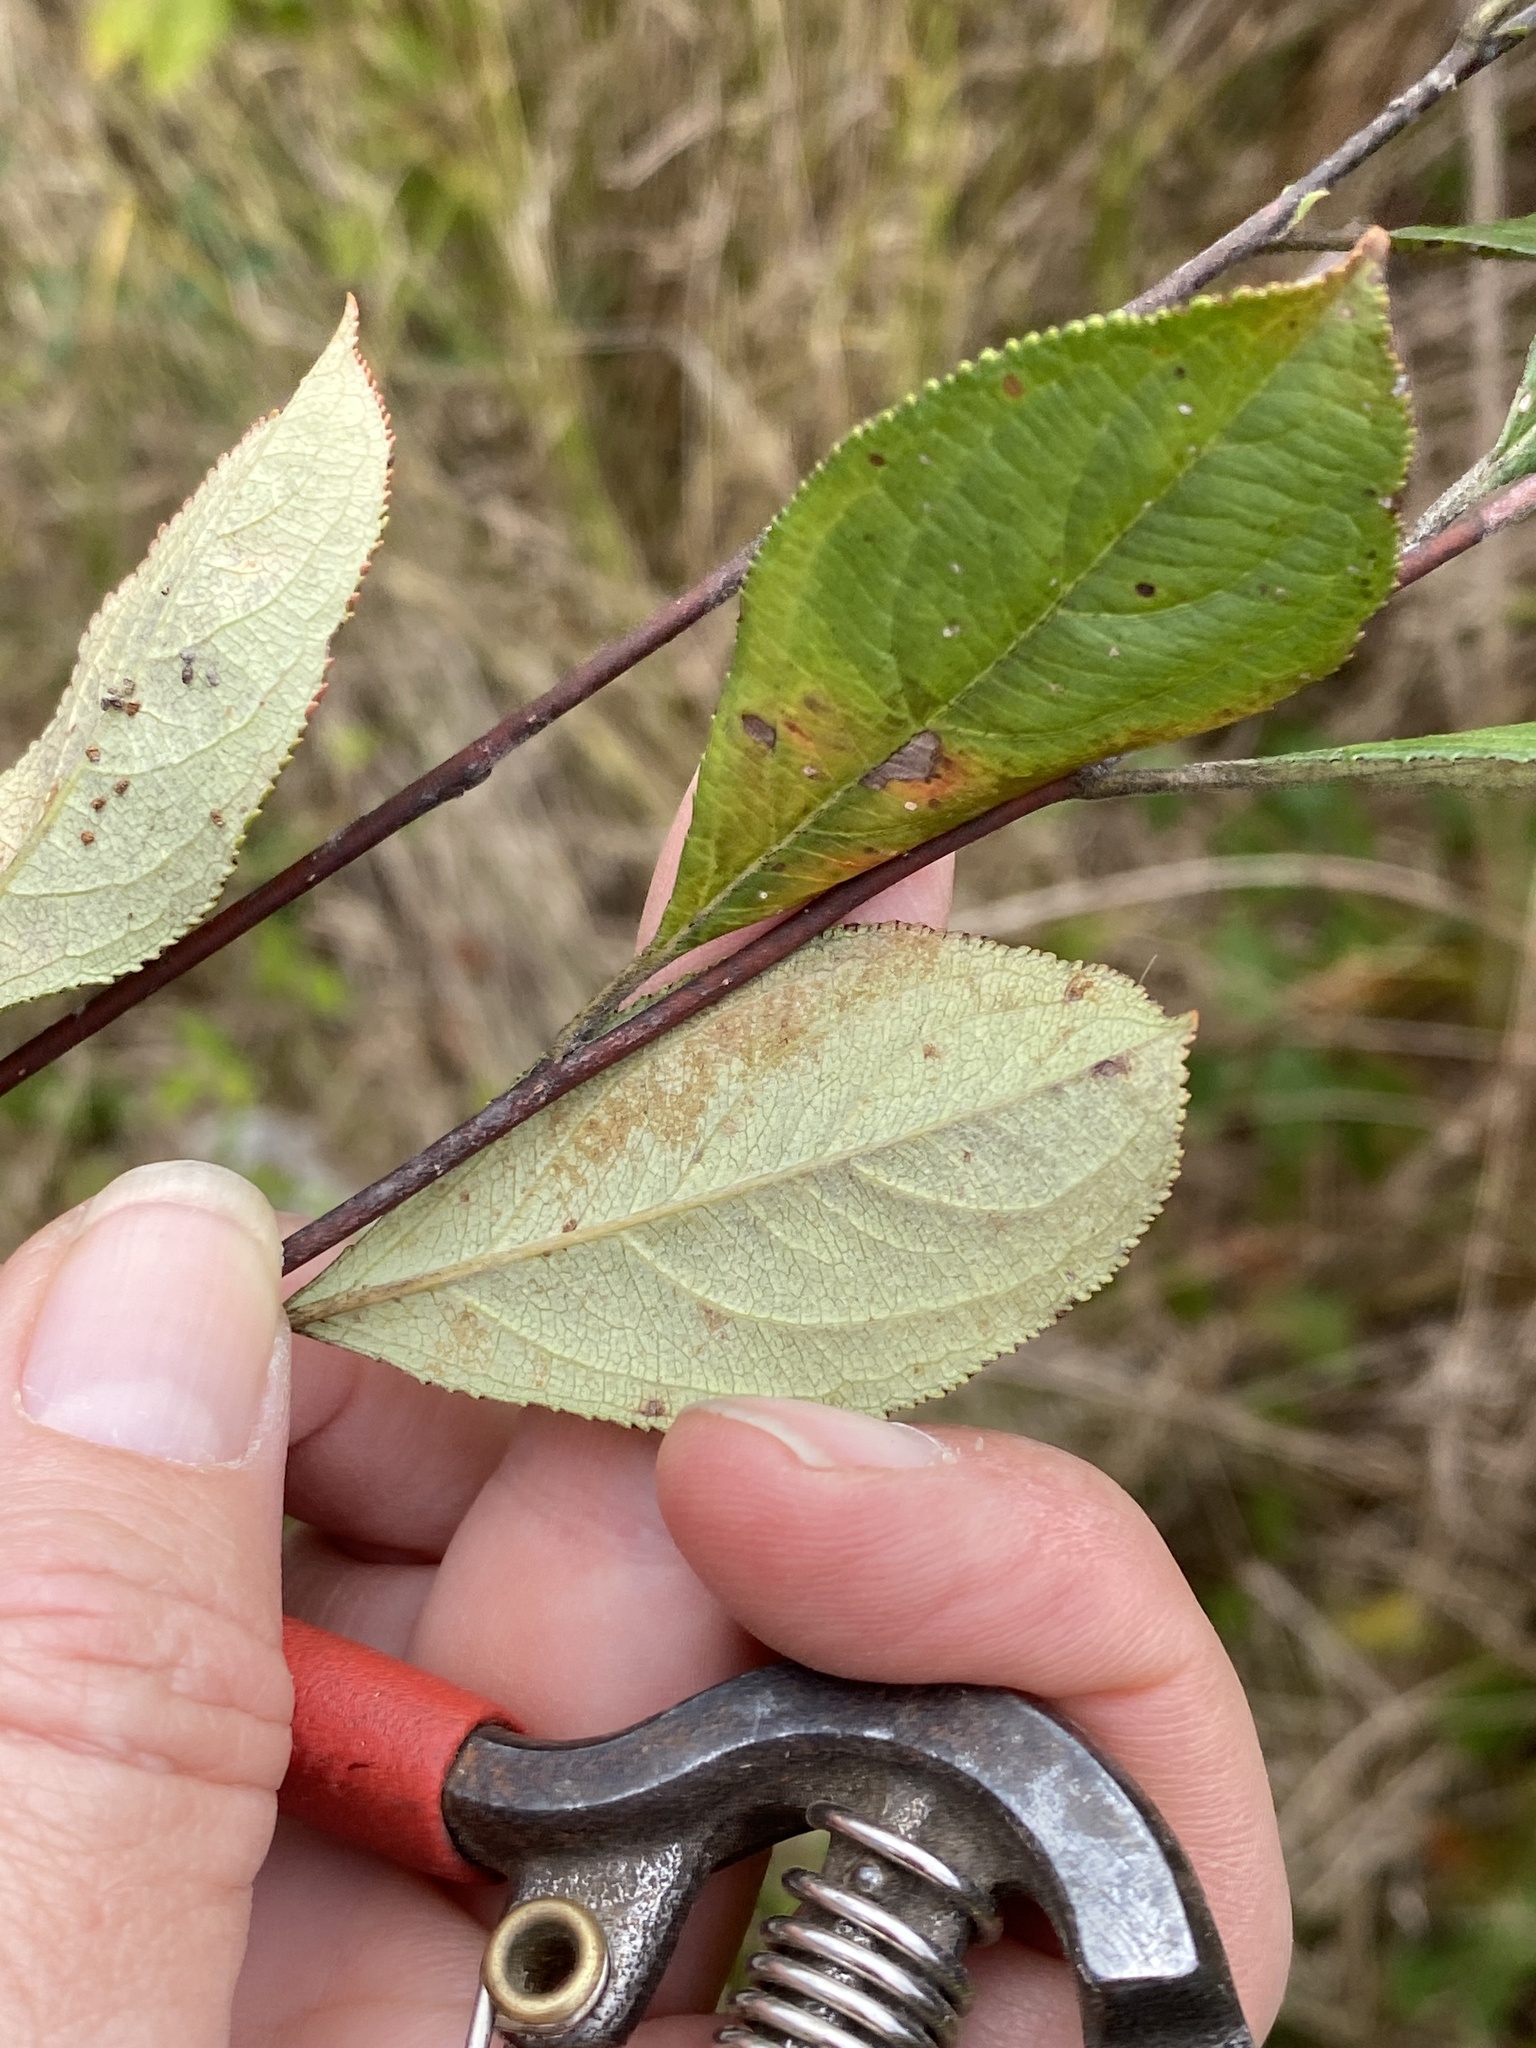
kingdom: Plantae
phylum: Tracheophyta
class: Magnoliopsida
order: Rosales
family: Rosaceae
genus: Aronia
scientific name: Aronia arbutifolia
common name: Red chokeberry
